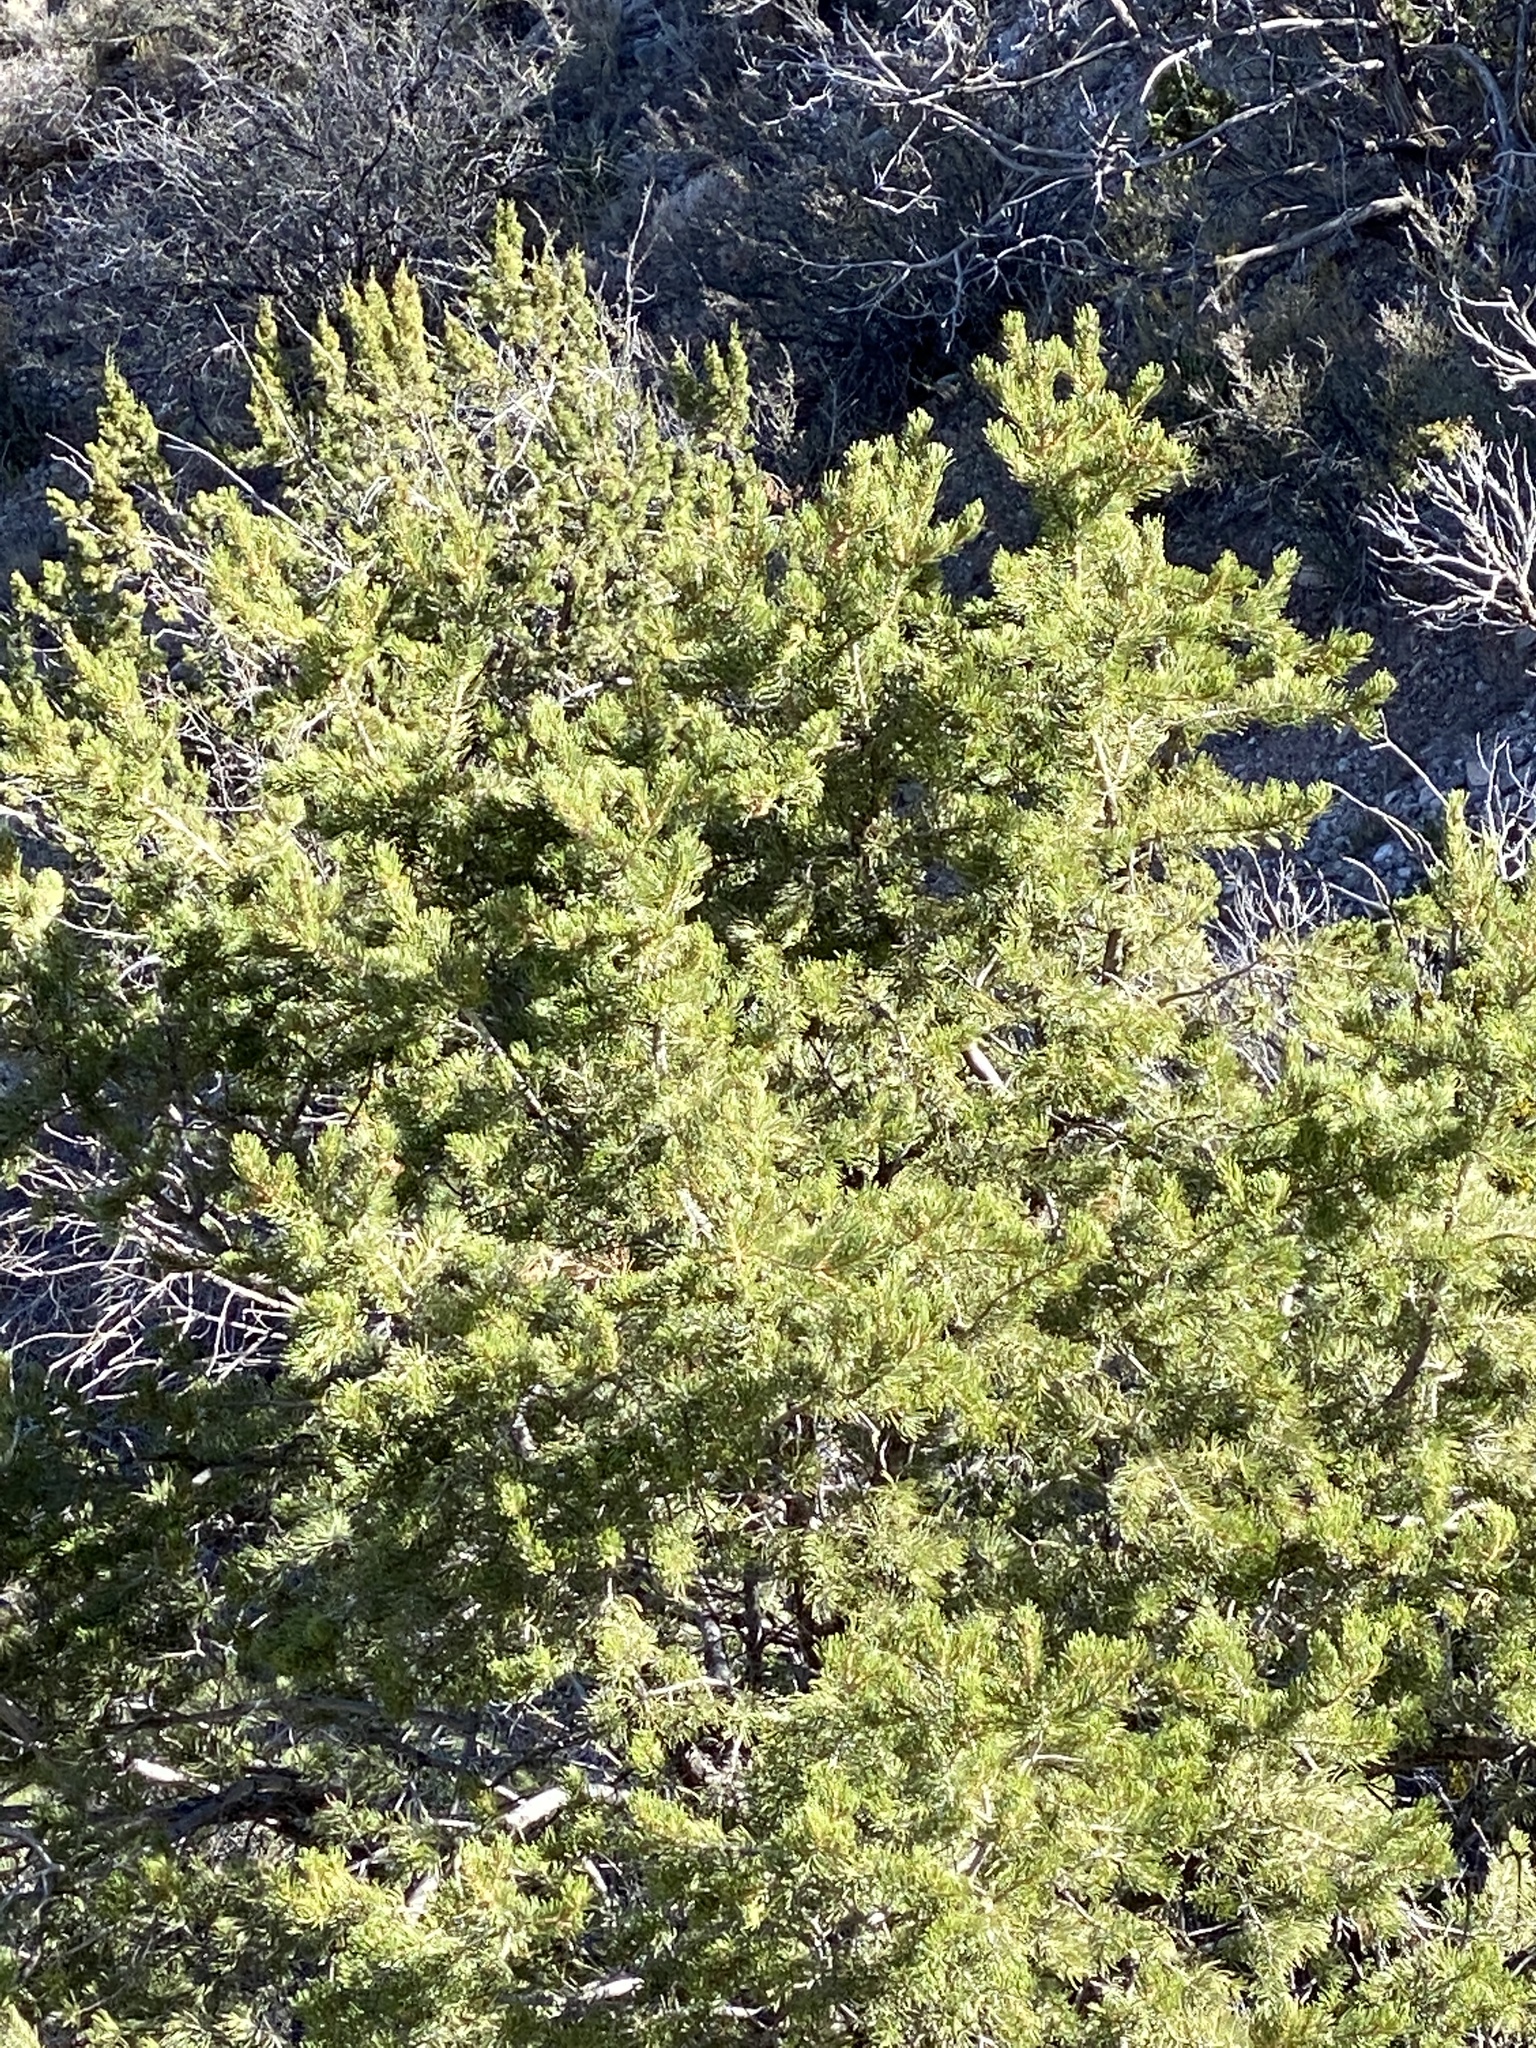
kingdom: Plantae
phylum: Tracheophyta
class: Pinopsida
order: Pinales
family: Pinaceae
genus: Pinus
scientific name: Pinus edulis
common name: Colorado pinyon
